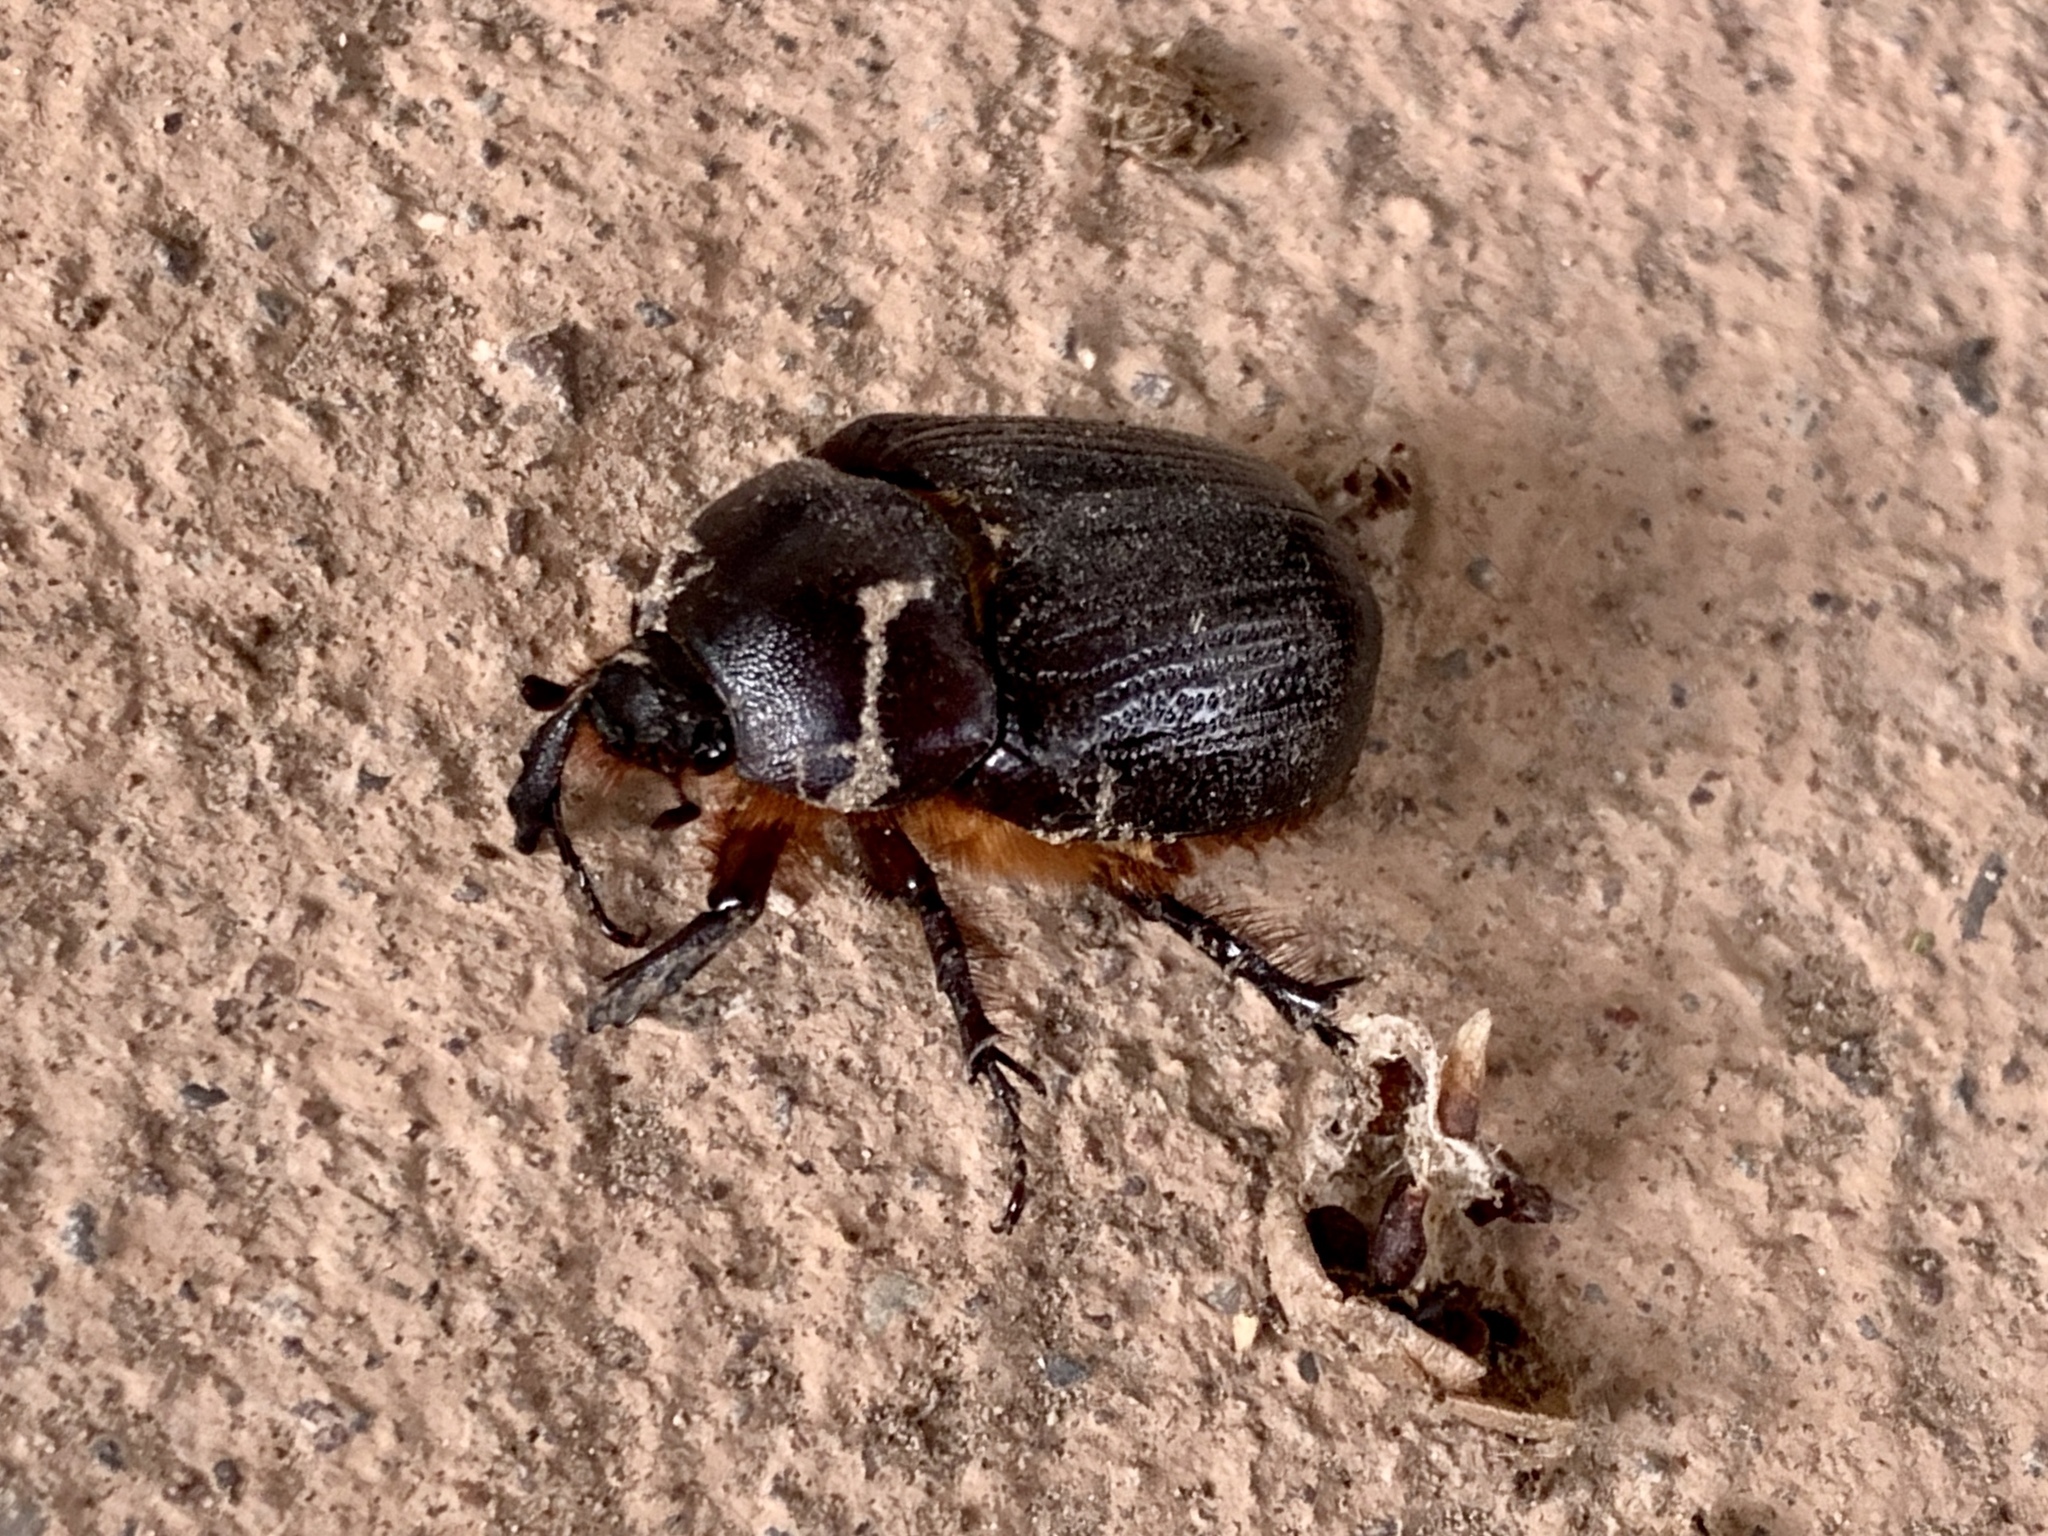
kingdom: Animalia
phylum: Arthropoda
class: Insecta
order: Coleoptera
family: Scarabaeidae
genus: Xyloryctes
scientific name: Xyloryctes thestalus
